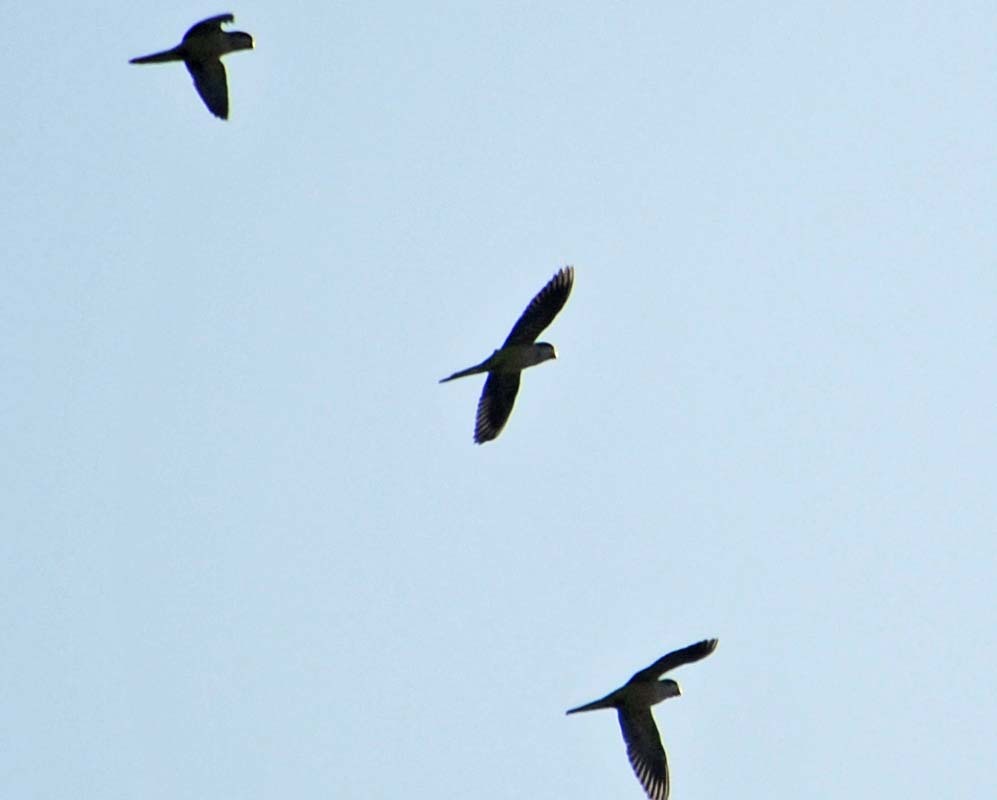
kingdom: Animalia
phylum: Chordata
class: Aves
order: Psittaciformes
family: Psittacidae
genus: Myiopsitta
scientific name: Myiopsitta monachus
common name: Monk parakeet
